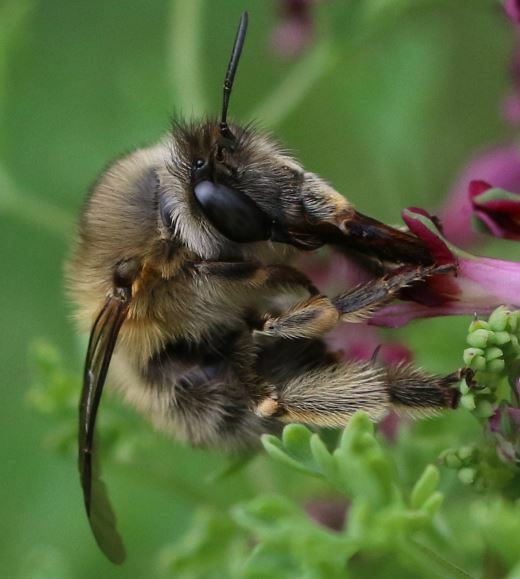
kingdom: Animalia
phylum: Arthropoda
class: Insecta
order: Hymenoptera
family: Apidae
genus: Anthophora
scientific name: Anthophora plumipes
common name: Hairy-footed flower bee
